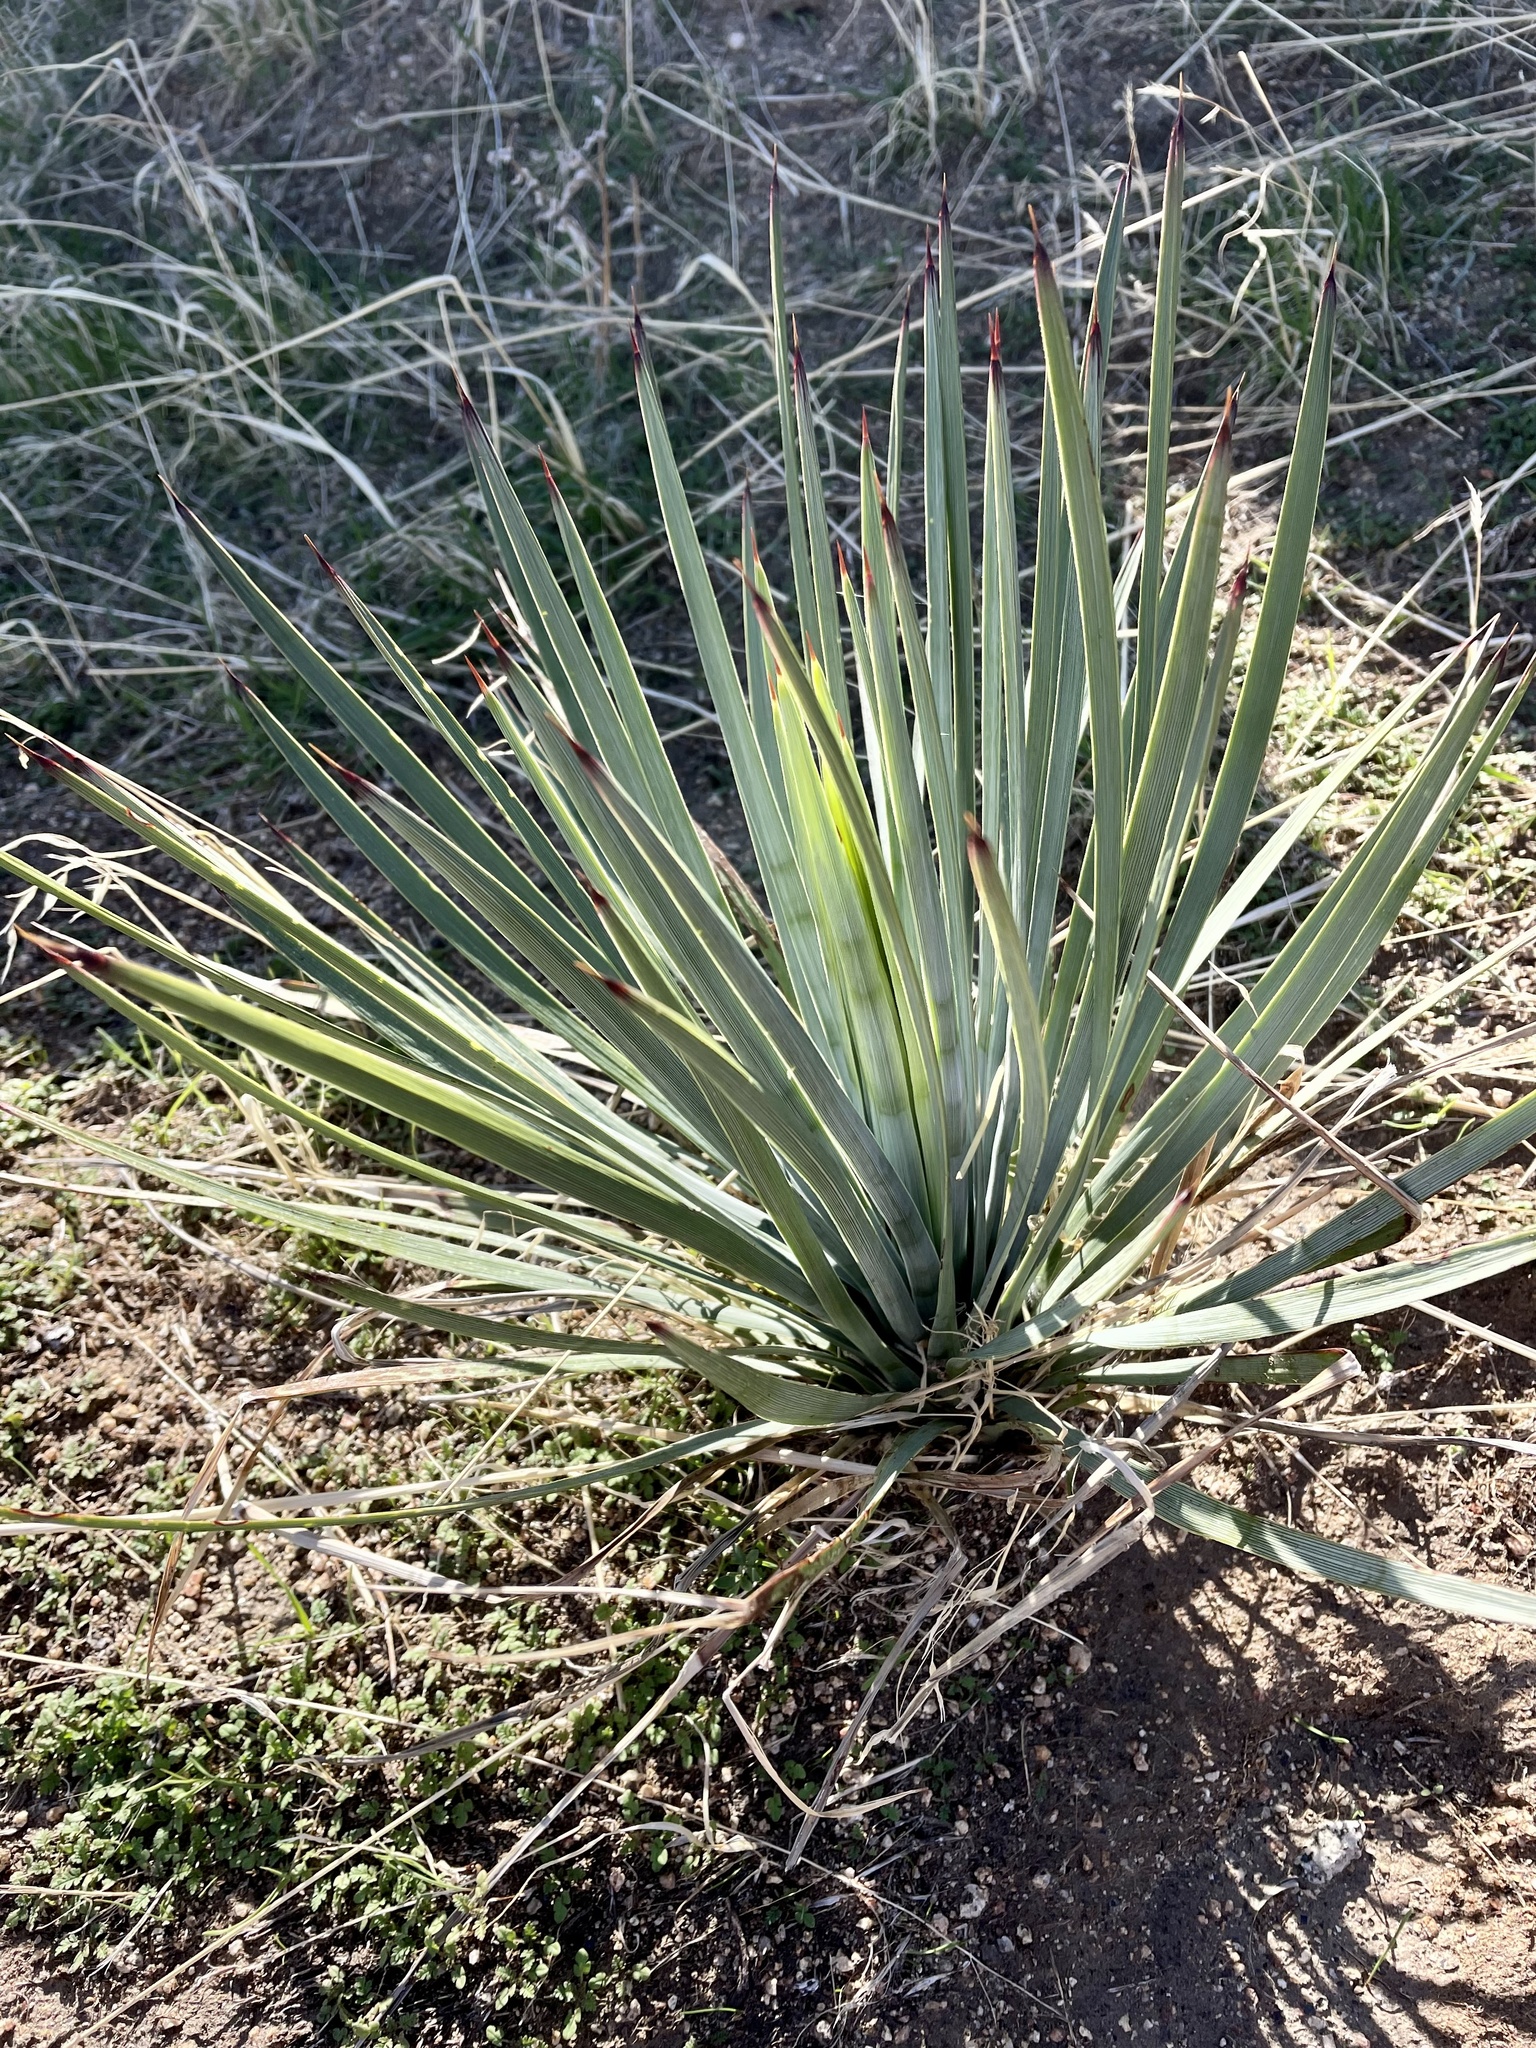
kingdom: Plantae
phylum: Tracheophyta
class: Liliopsida
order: Asparagales
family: Asparagaceae
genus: Hesperoyucca
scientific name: Hesperoyucca whipplei
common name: Our lord's-candle
